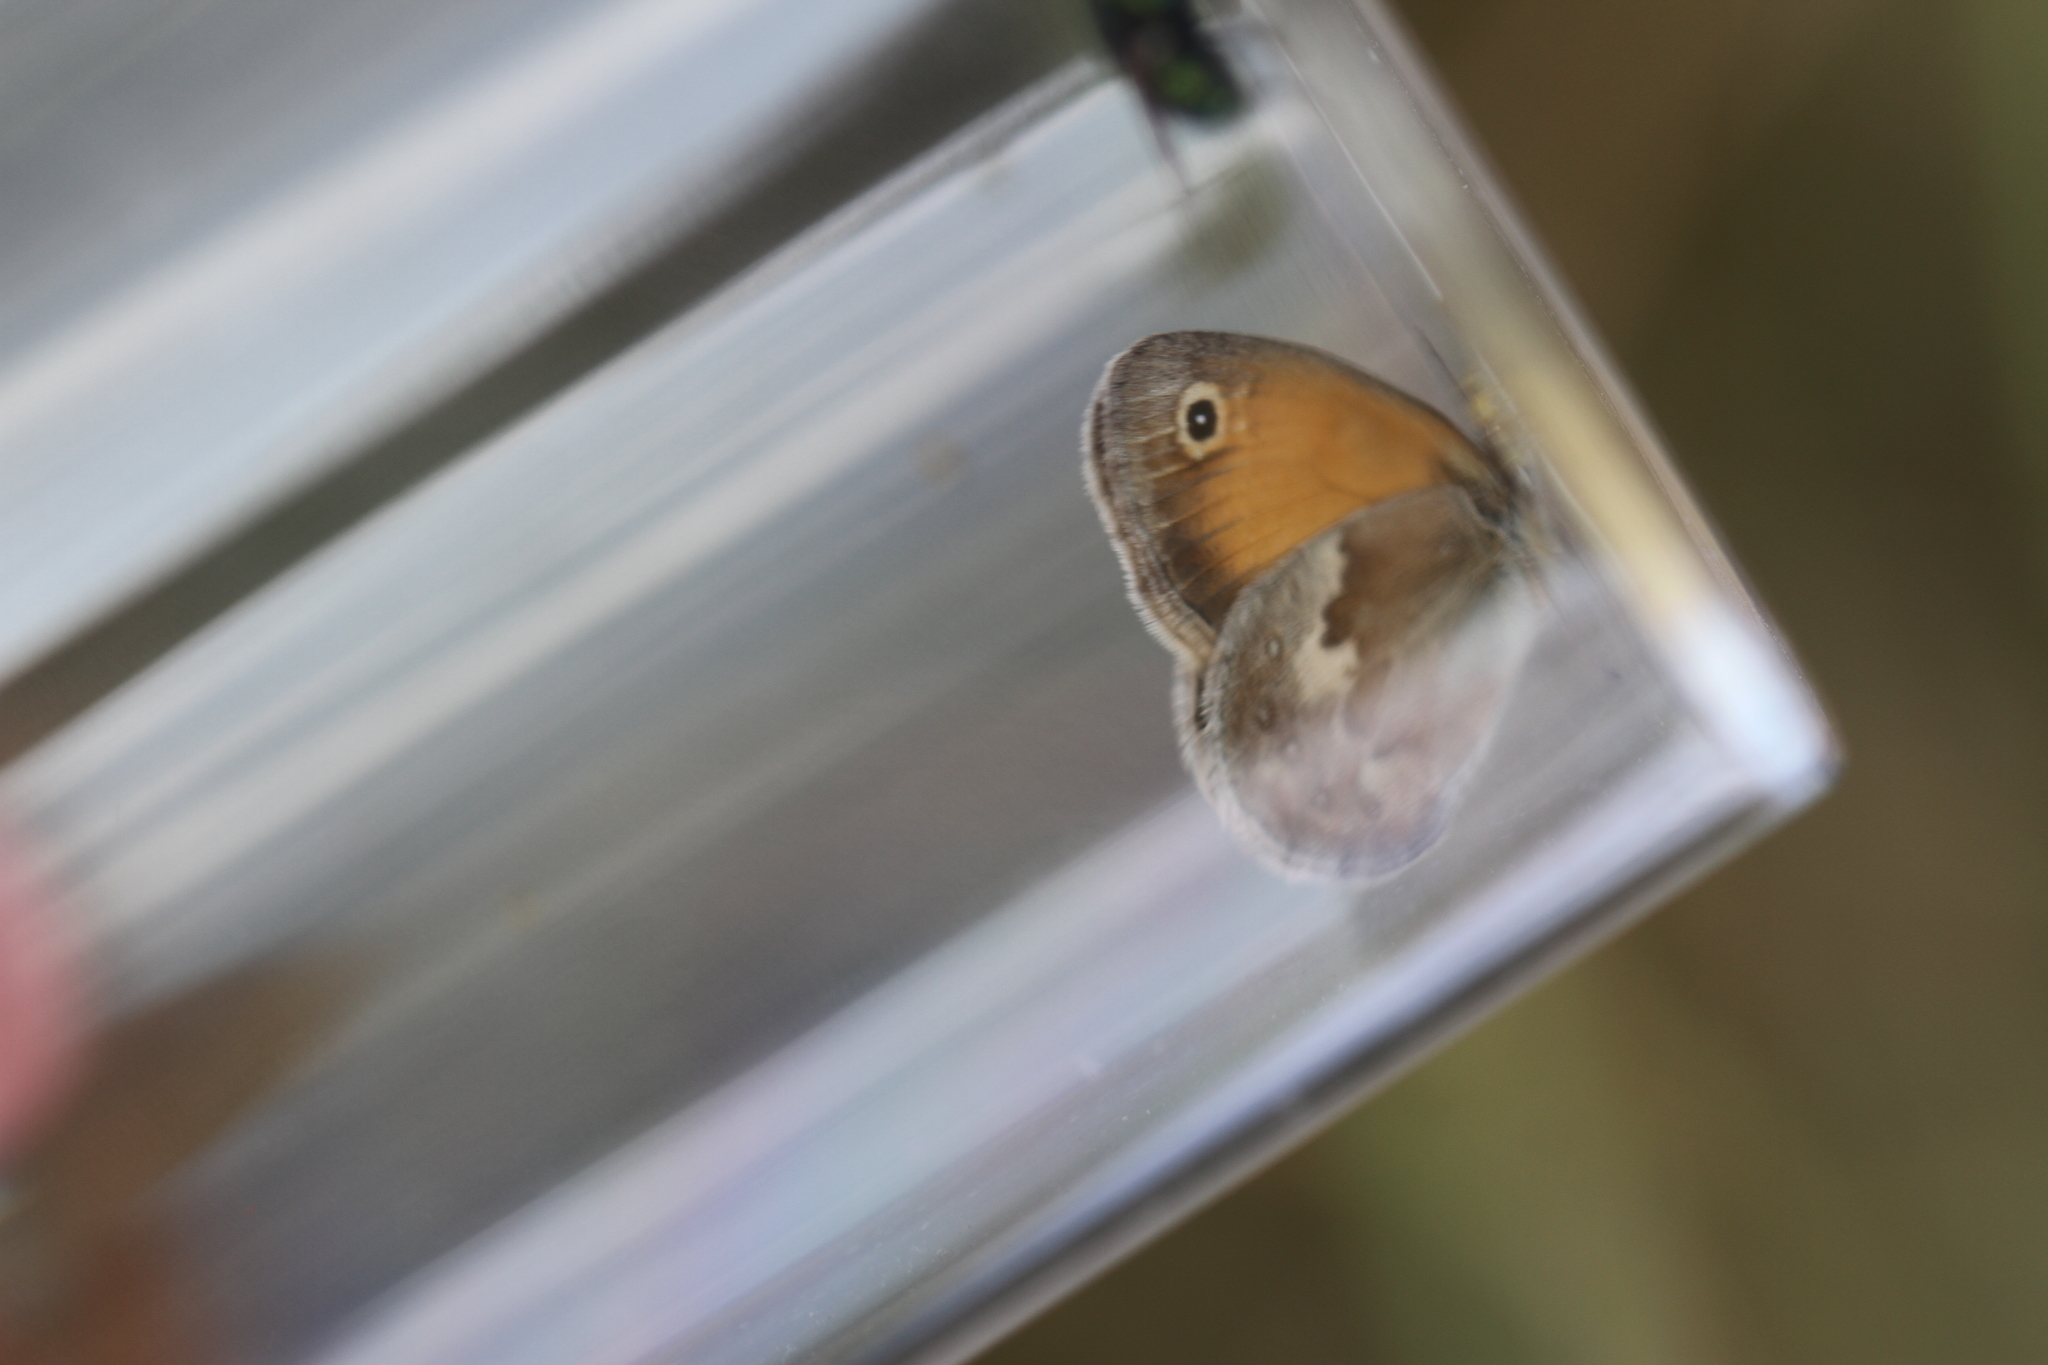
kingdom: Animalia
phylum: Arthropoda
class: Insecta
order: Lepidoptera
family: Nymphalidae
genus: Coenonympha
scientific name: Coenonympha pamphilus
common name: Small heath
